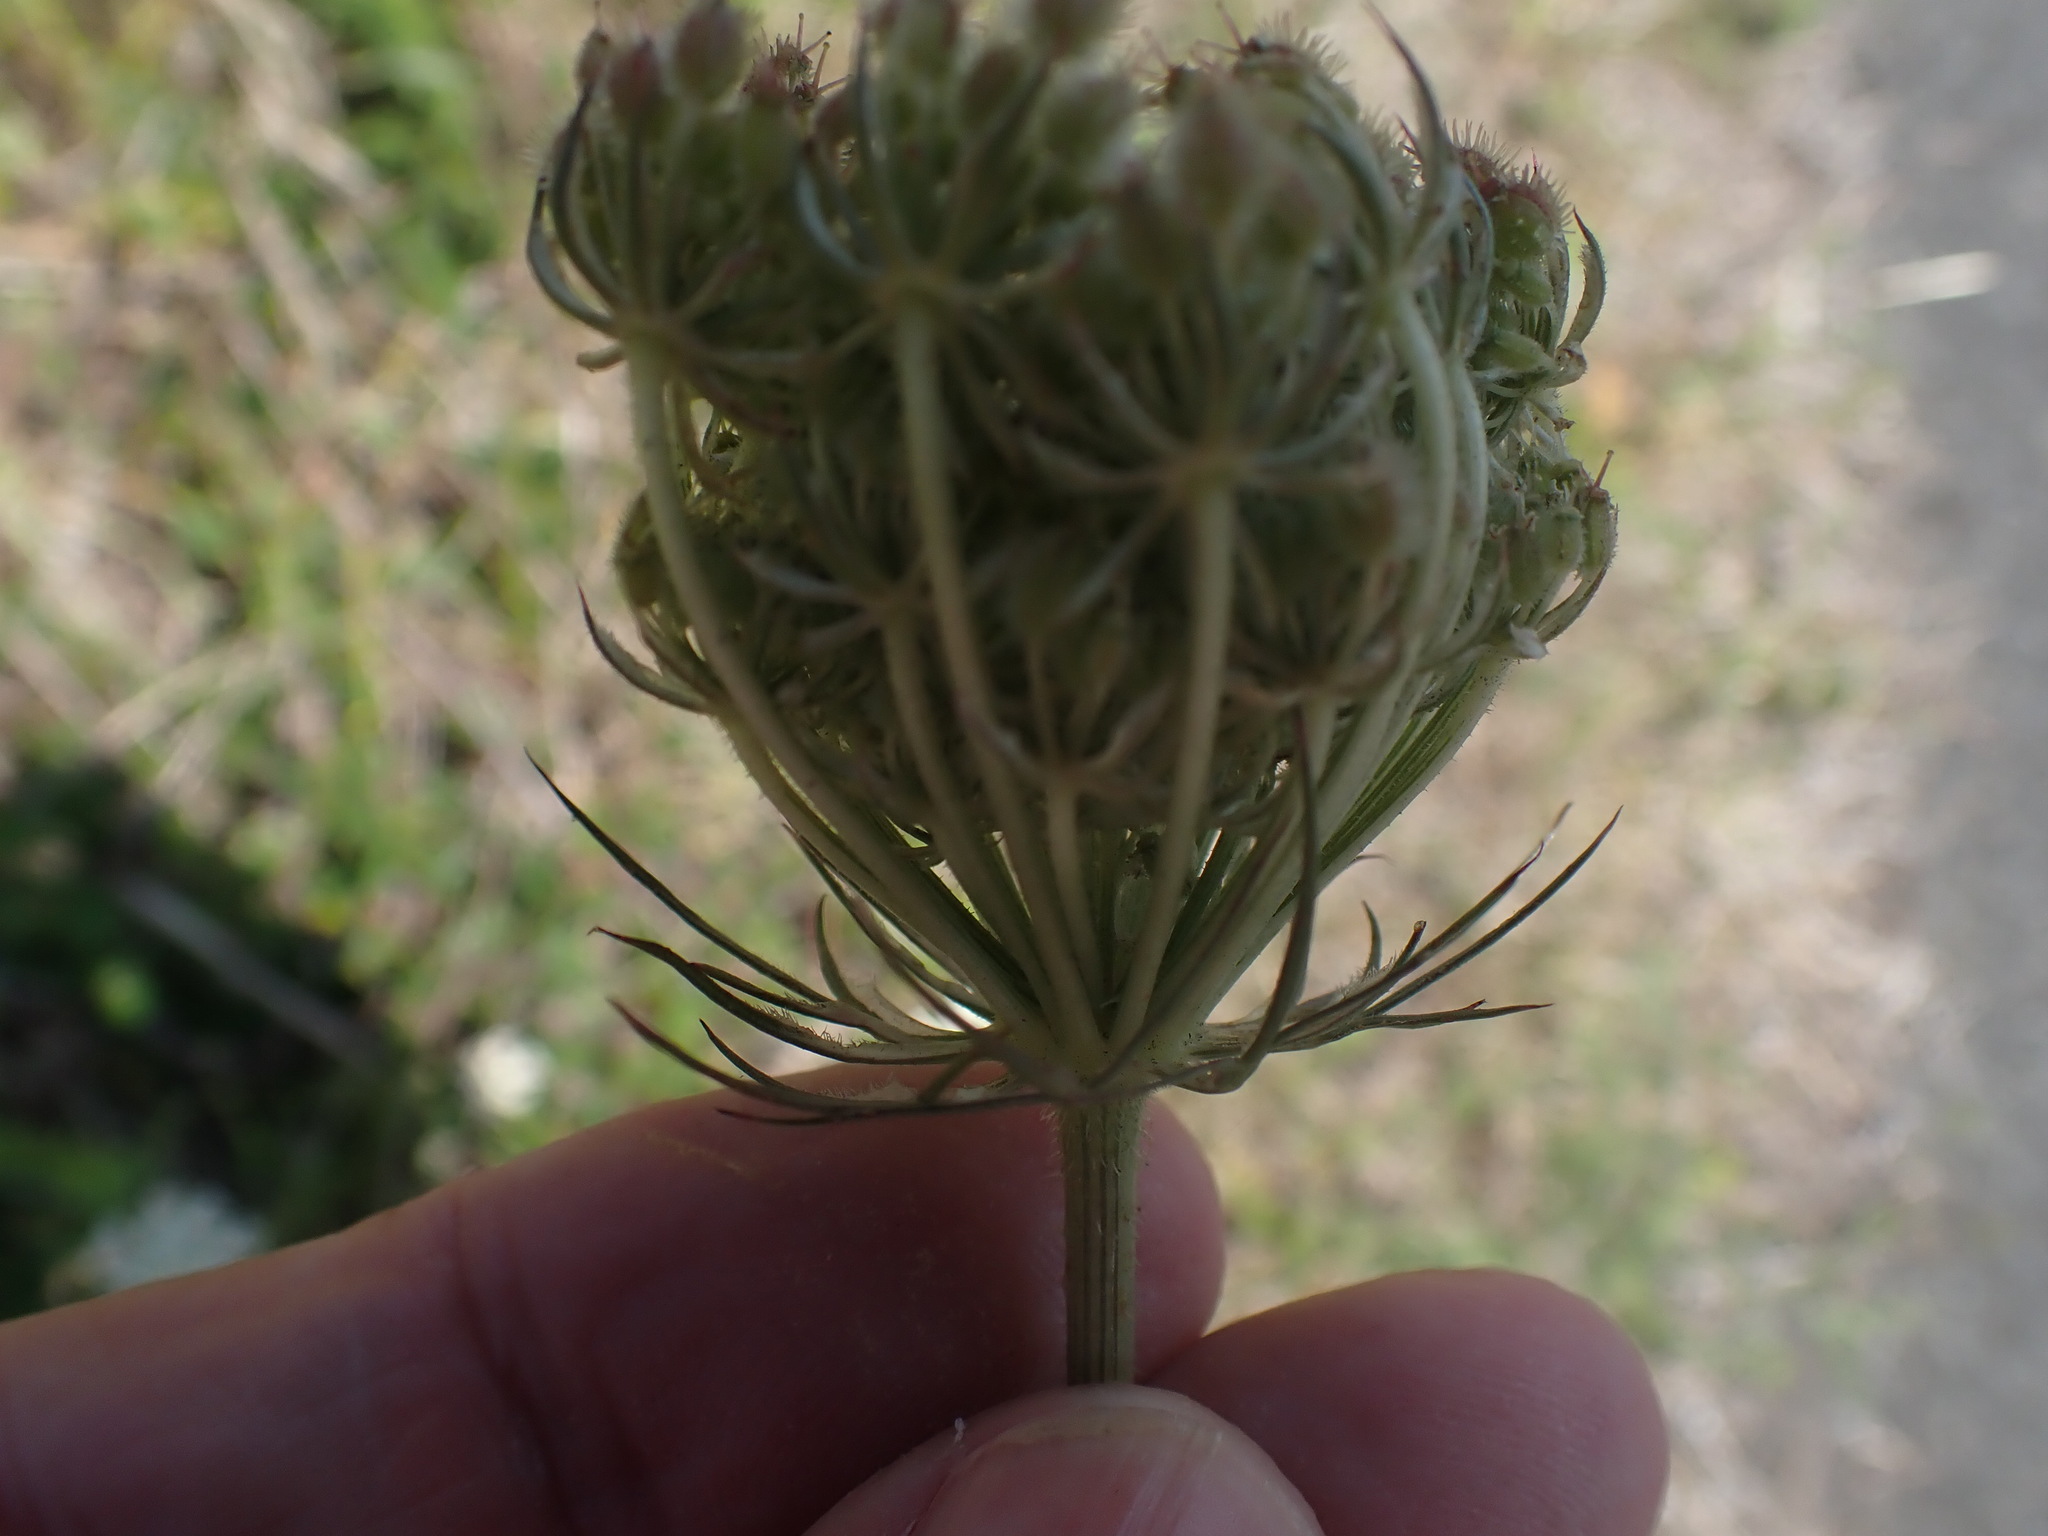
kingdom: Plantae
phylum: Tracheophyta
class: Magnoliopsida
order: Apiales
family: Apiaceae
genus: Daucus
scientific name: Daucus carota
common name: Wild carrot
